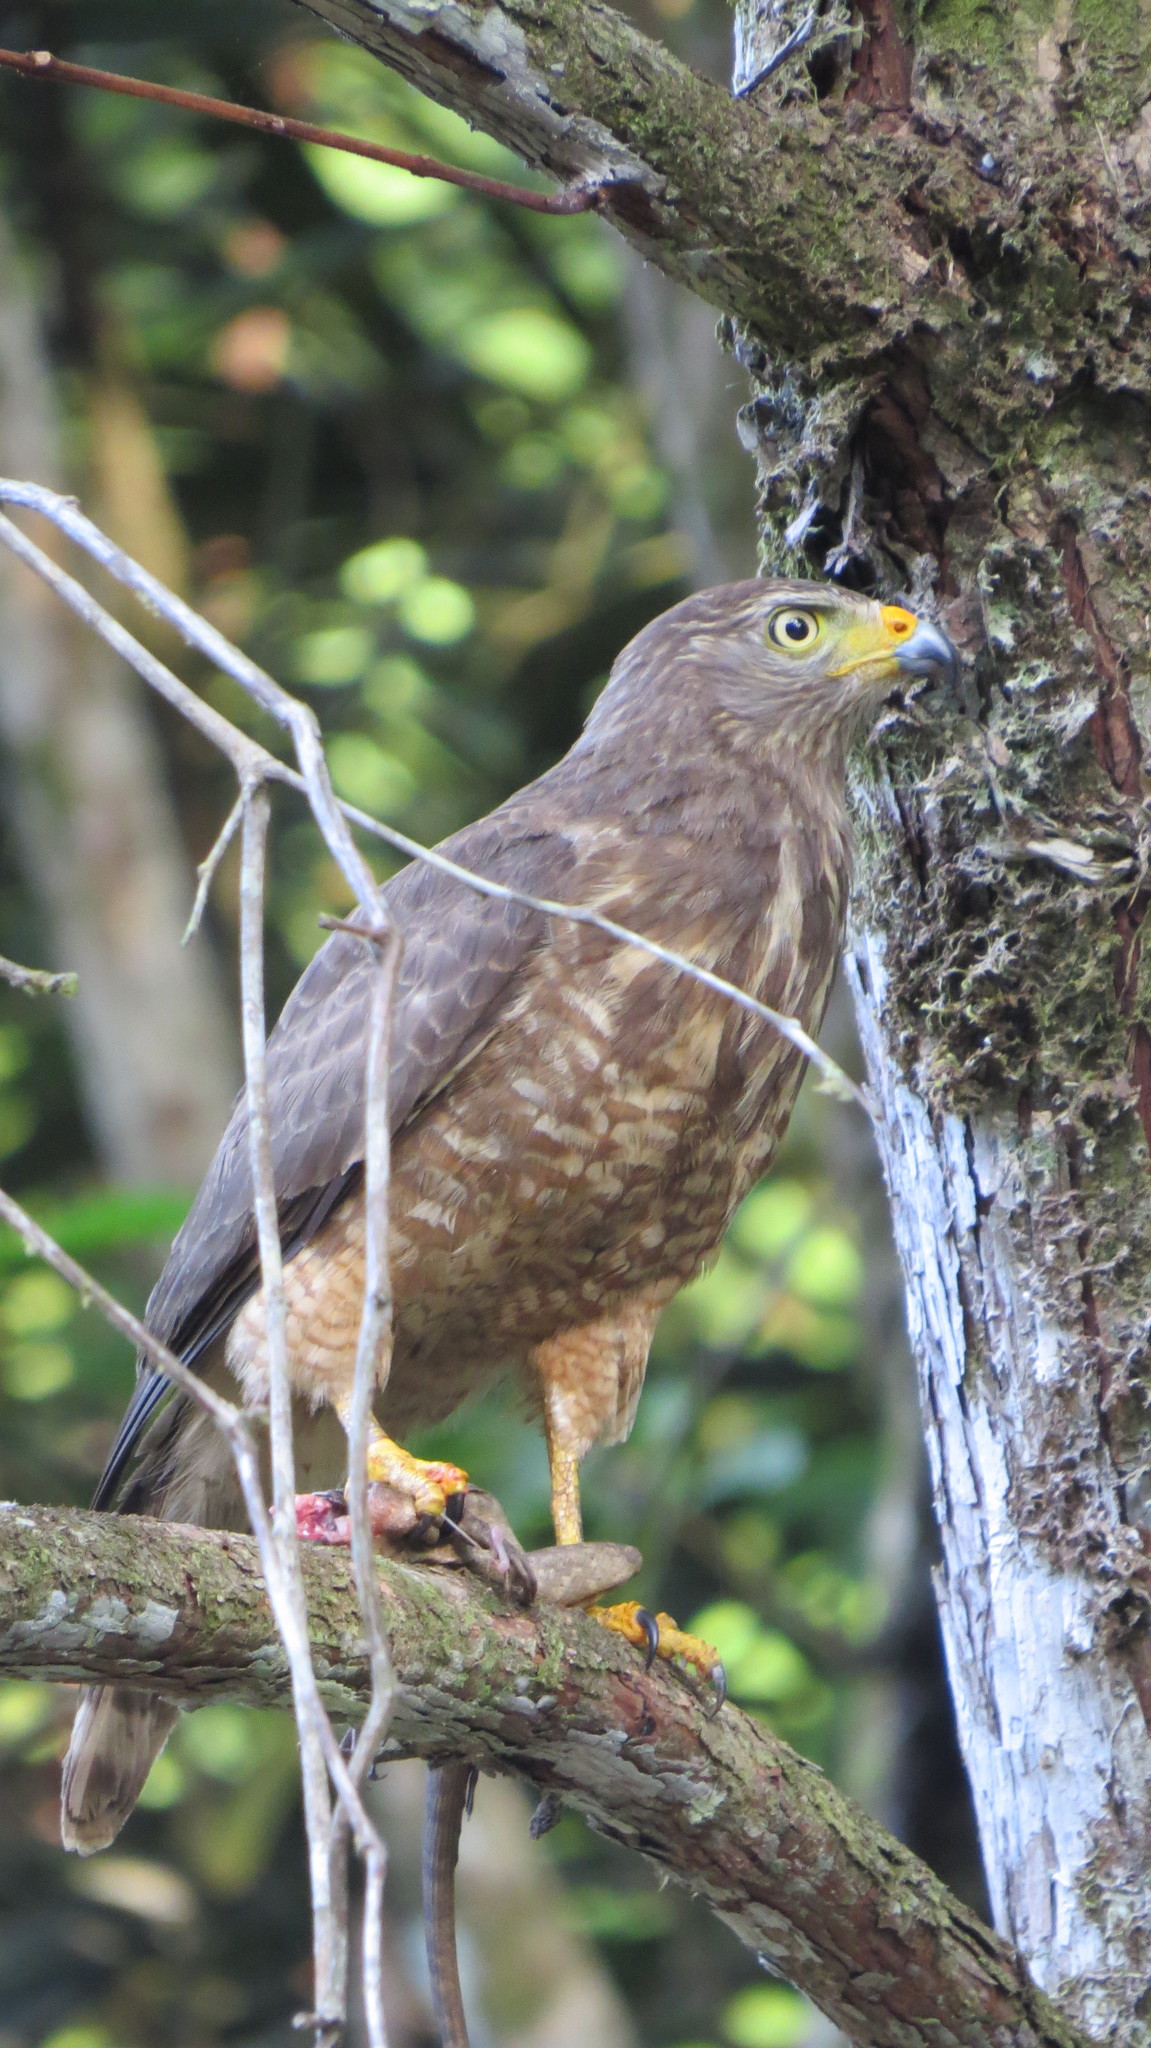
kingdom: Animalia
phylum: Chordata
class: Aves
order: Accipitriformes
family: Accipitridae
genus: Rupornis
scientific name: Rupornis magnirostris
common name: Roadside hawk
